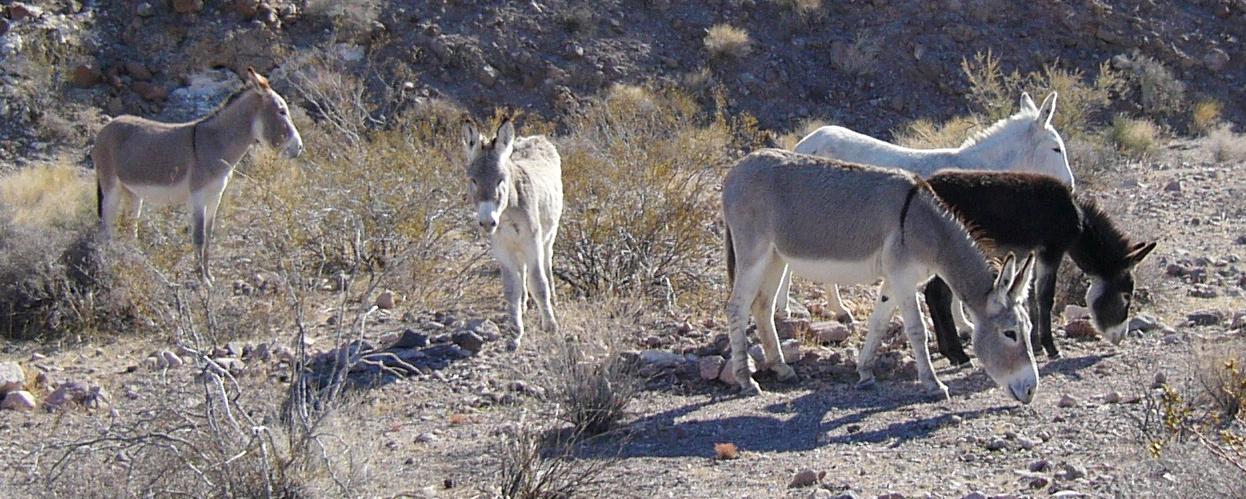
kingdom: Animalia
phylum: Chordata
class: Mammalia
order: Perissodactyla
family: Equidae
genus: Equus
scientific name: Equus asinus
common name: Ass
